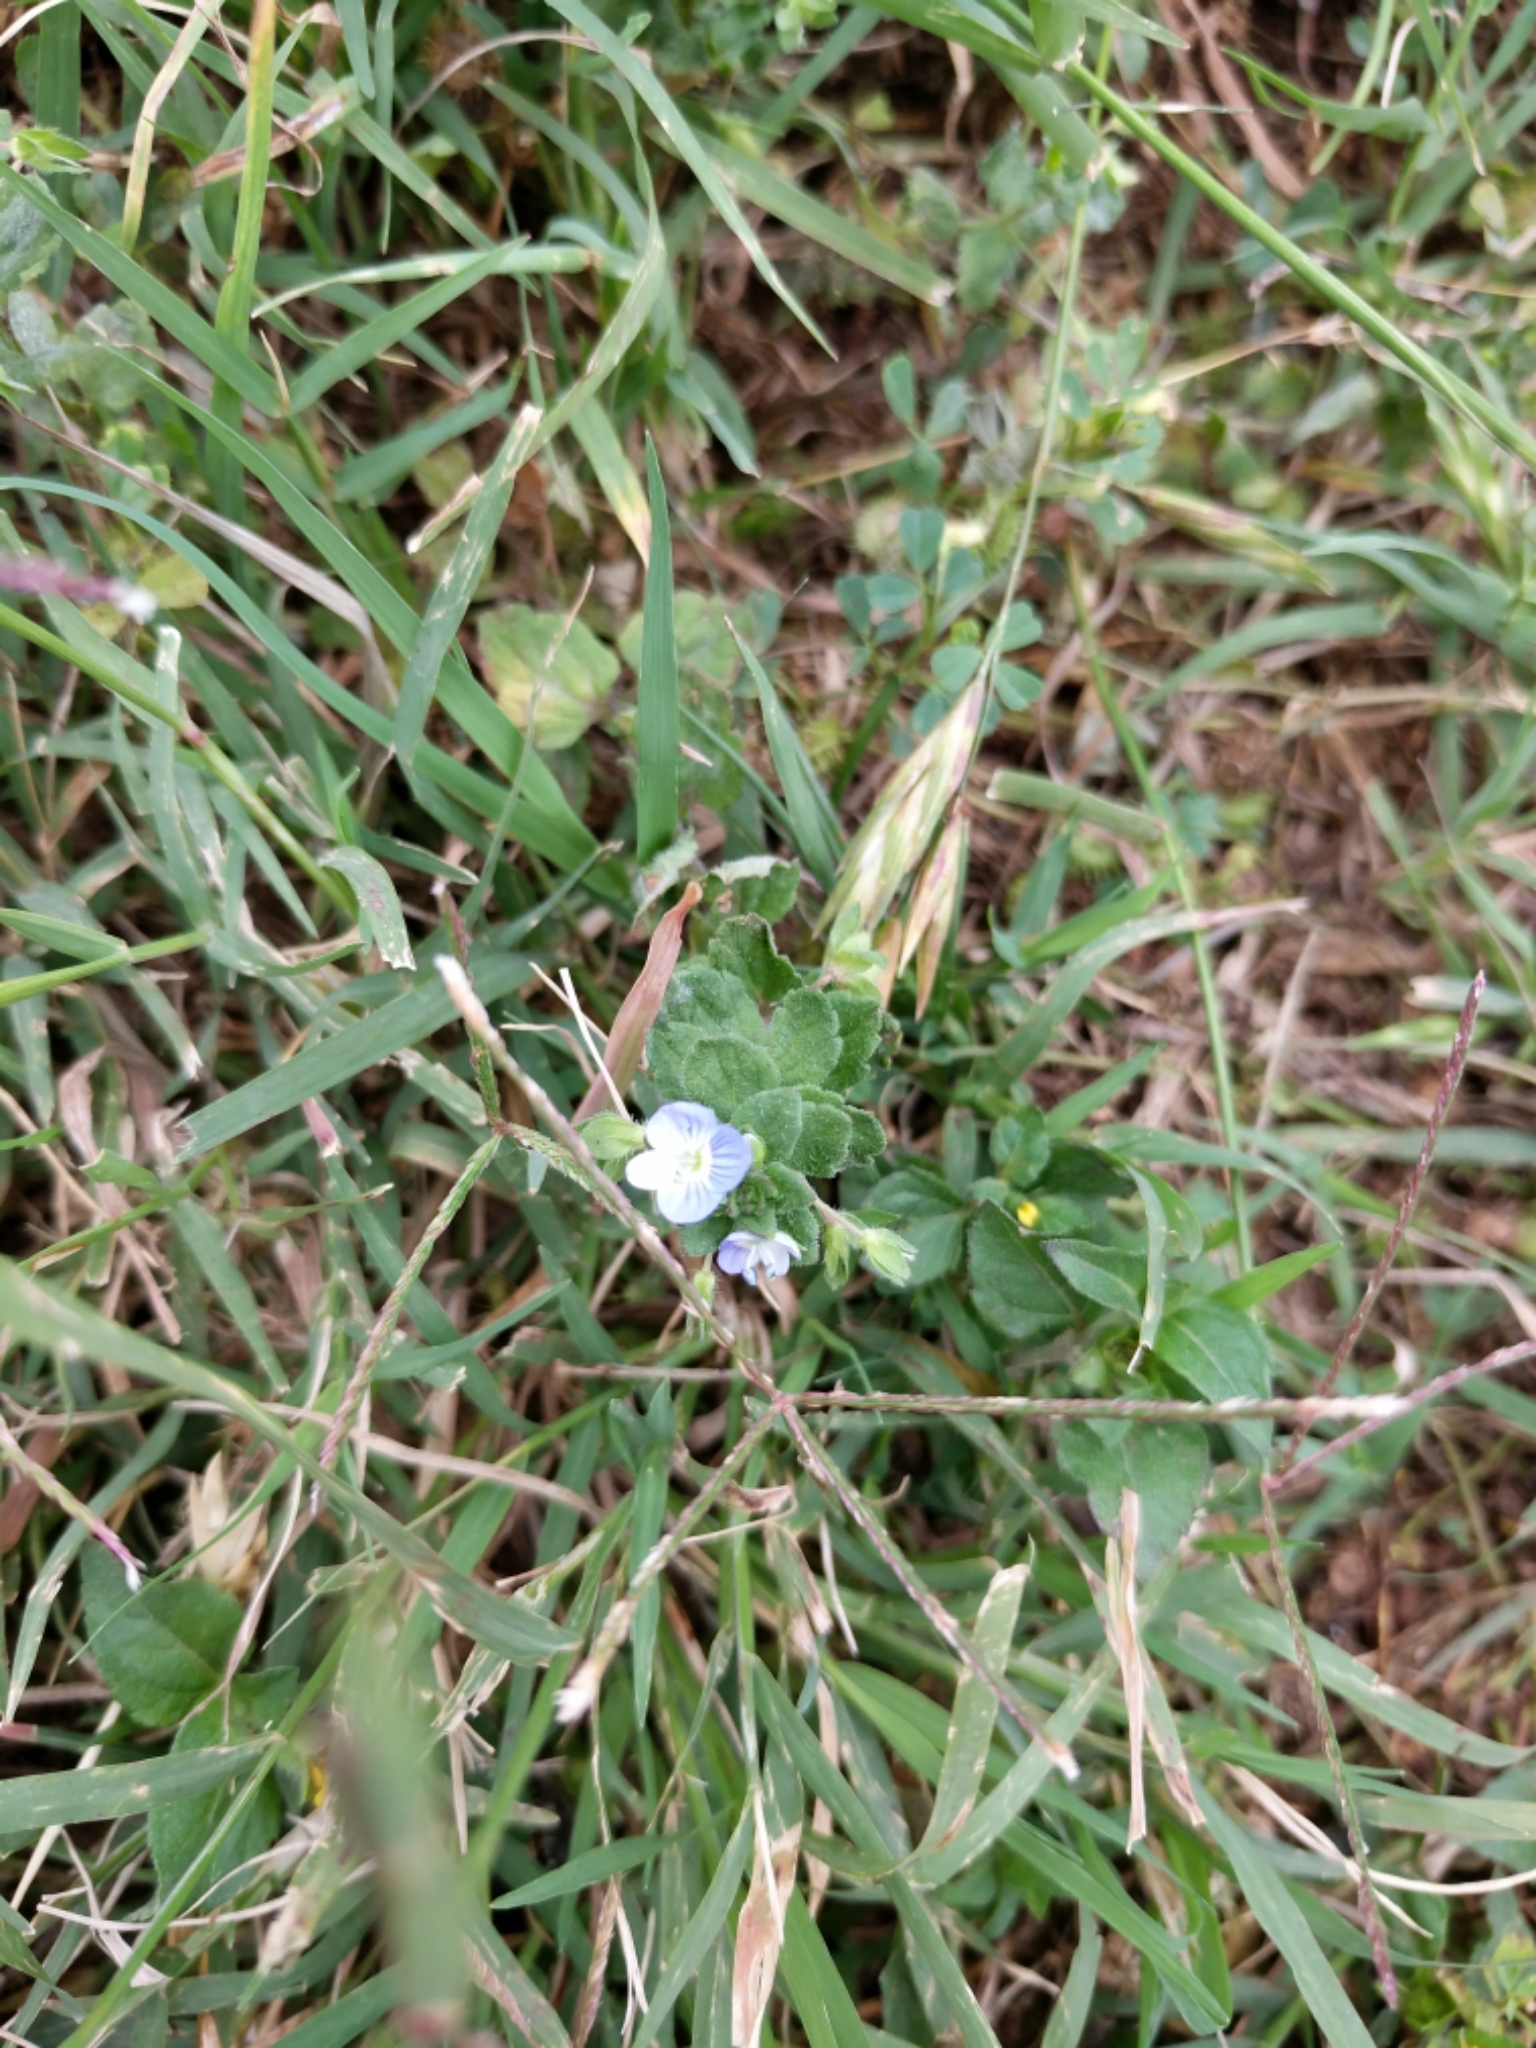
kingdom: Plantae
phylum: Tracheophyta
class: Magnoliopsida
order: Lamiales
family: Plantaginaceae
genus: Veronica
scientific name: Veronica persica
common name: Common field-speedwell
